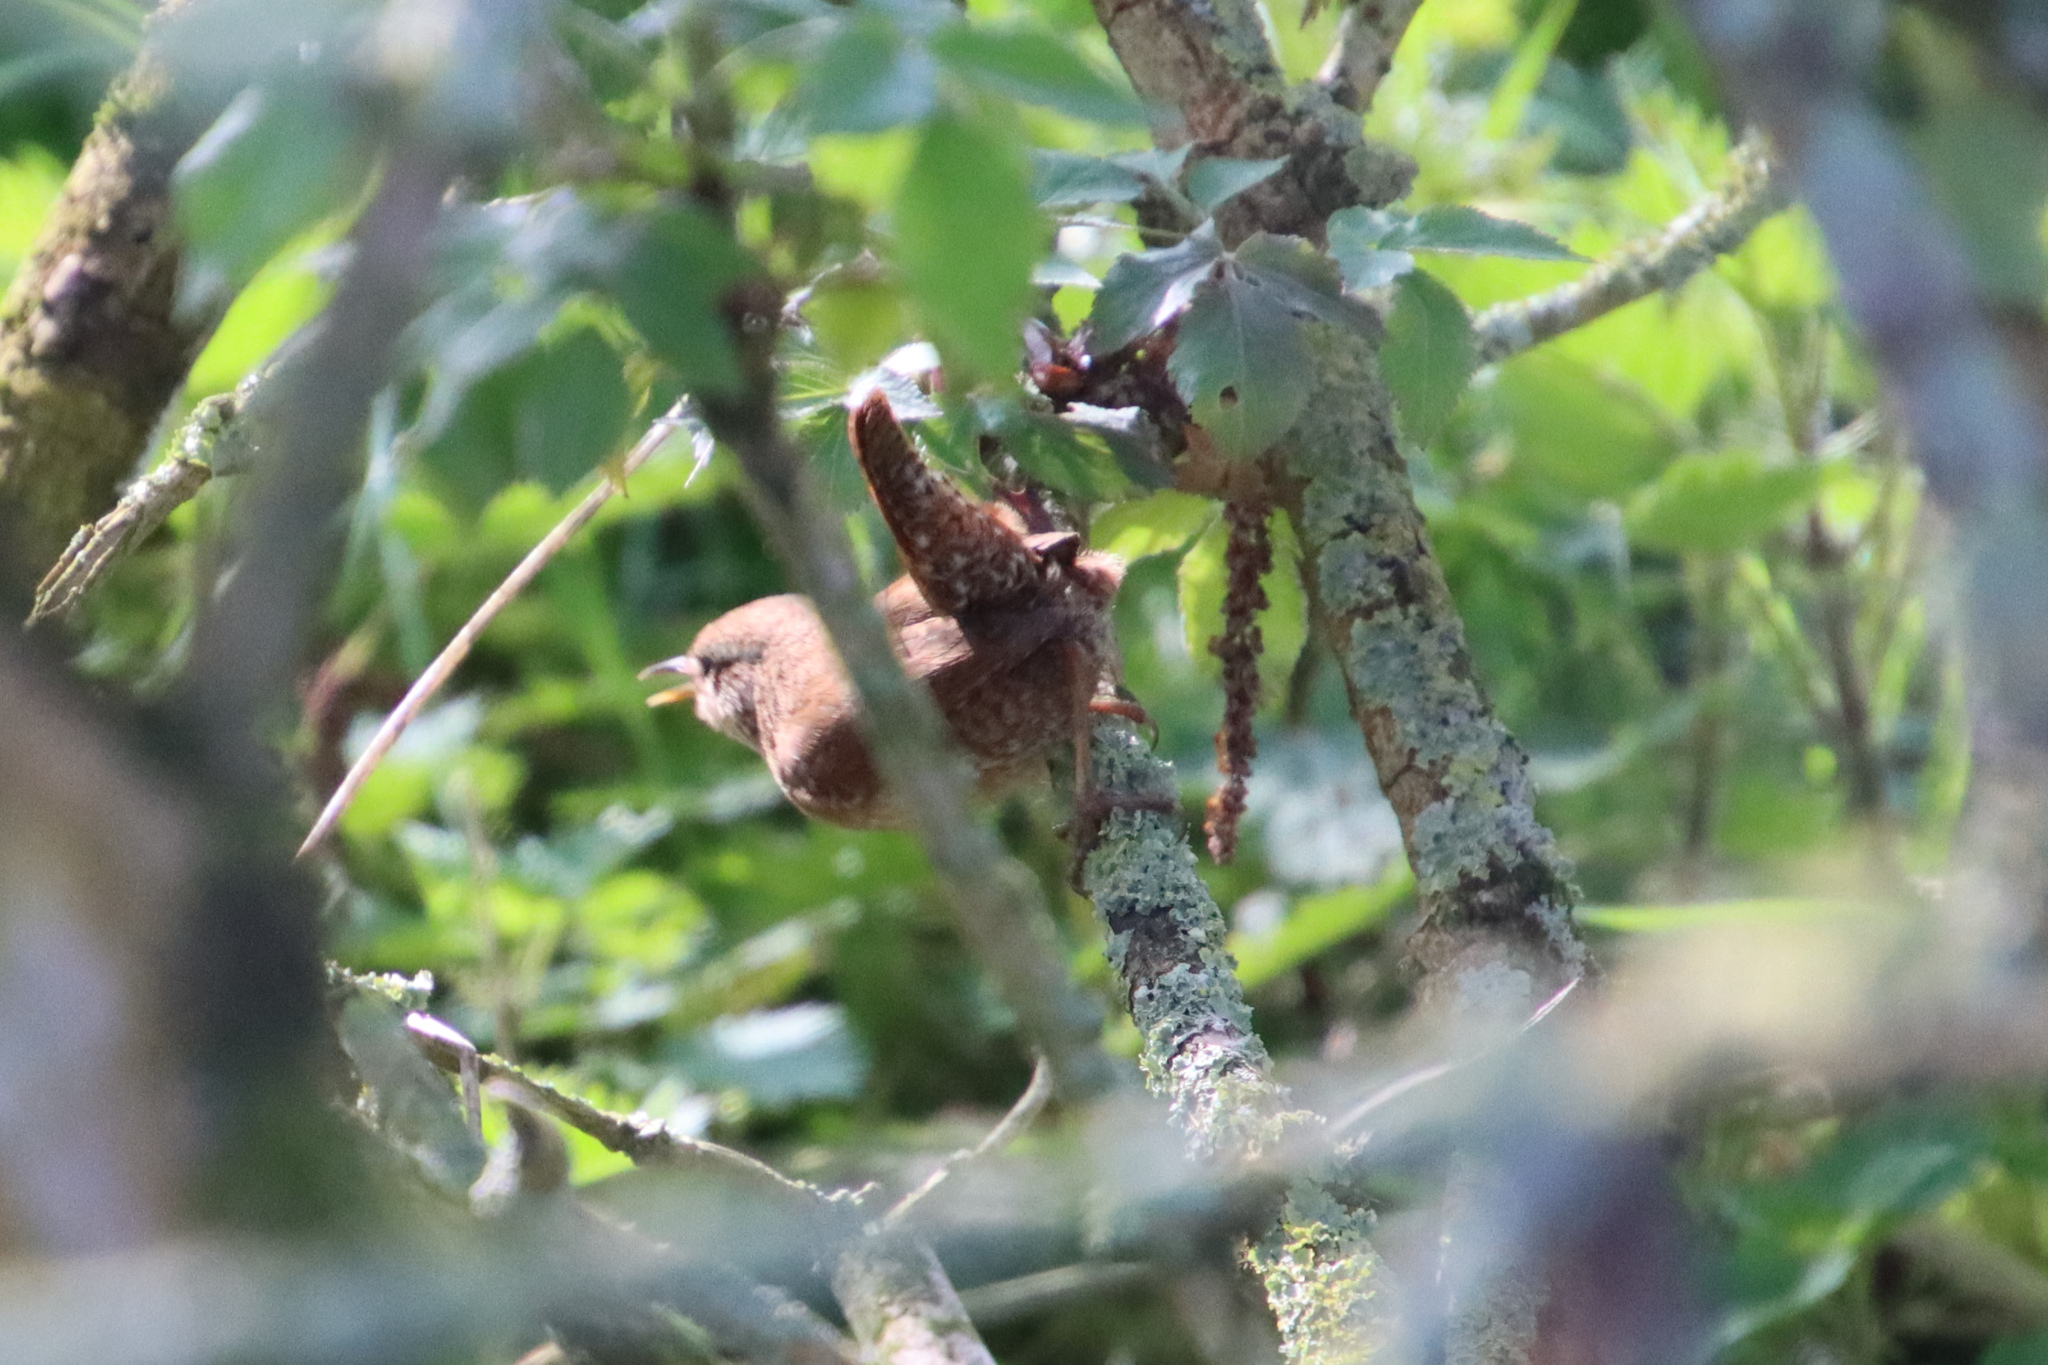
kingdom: Animalia
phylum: Chordata
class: Aves
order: Passeriformes
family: Troglodytidae
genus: Troglodytes
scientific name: Troglodytes troglodytes
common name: Eurasian wren
